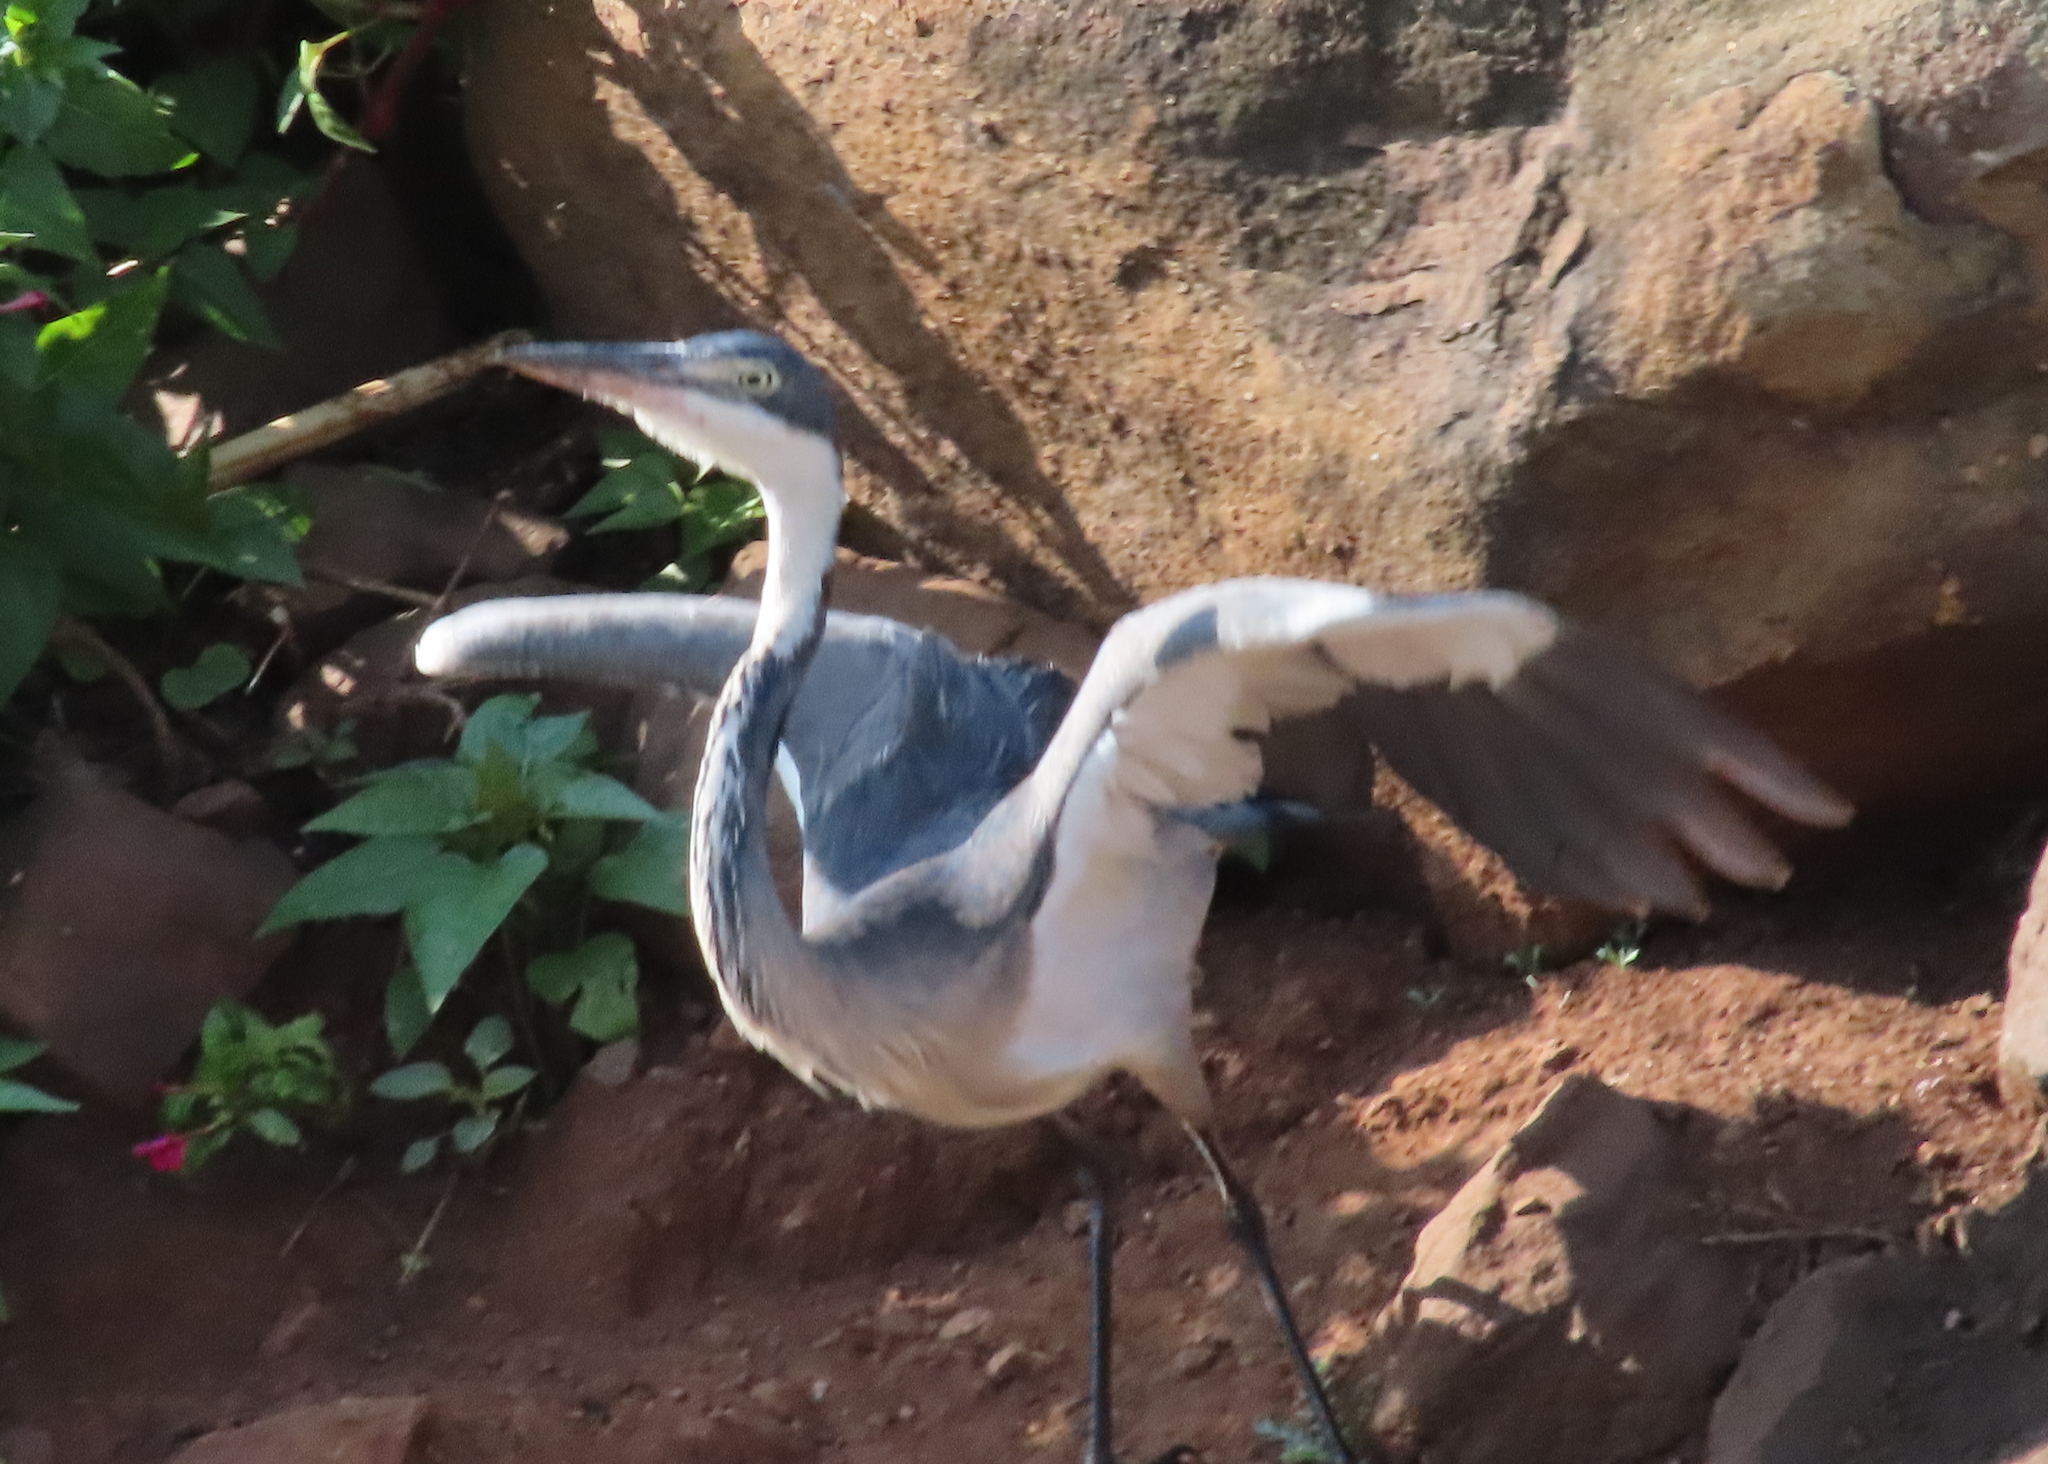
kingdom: Animalia
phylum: Chordata
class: Aves
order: Pelecaniformes
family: Ardeidae
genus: Ardea
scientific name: Ardea melanocephala
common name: Black-headed heron
